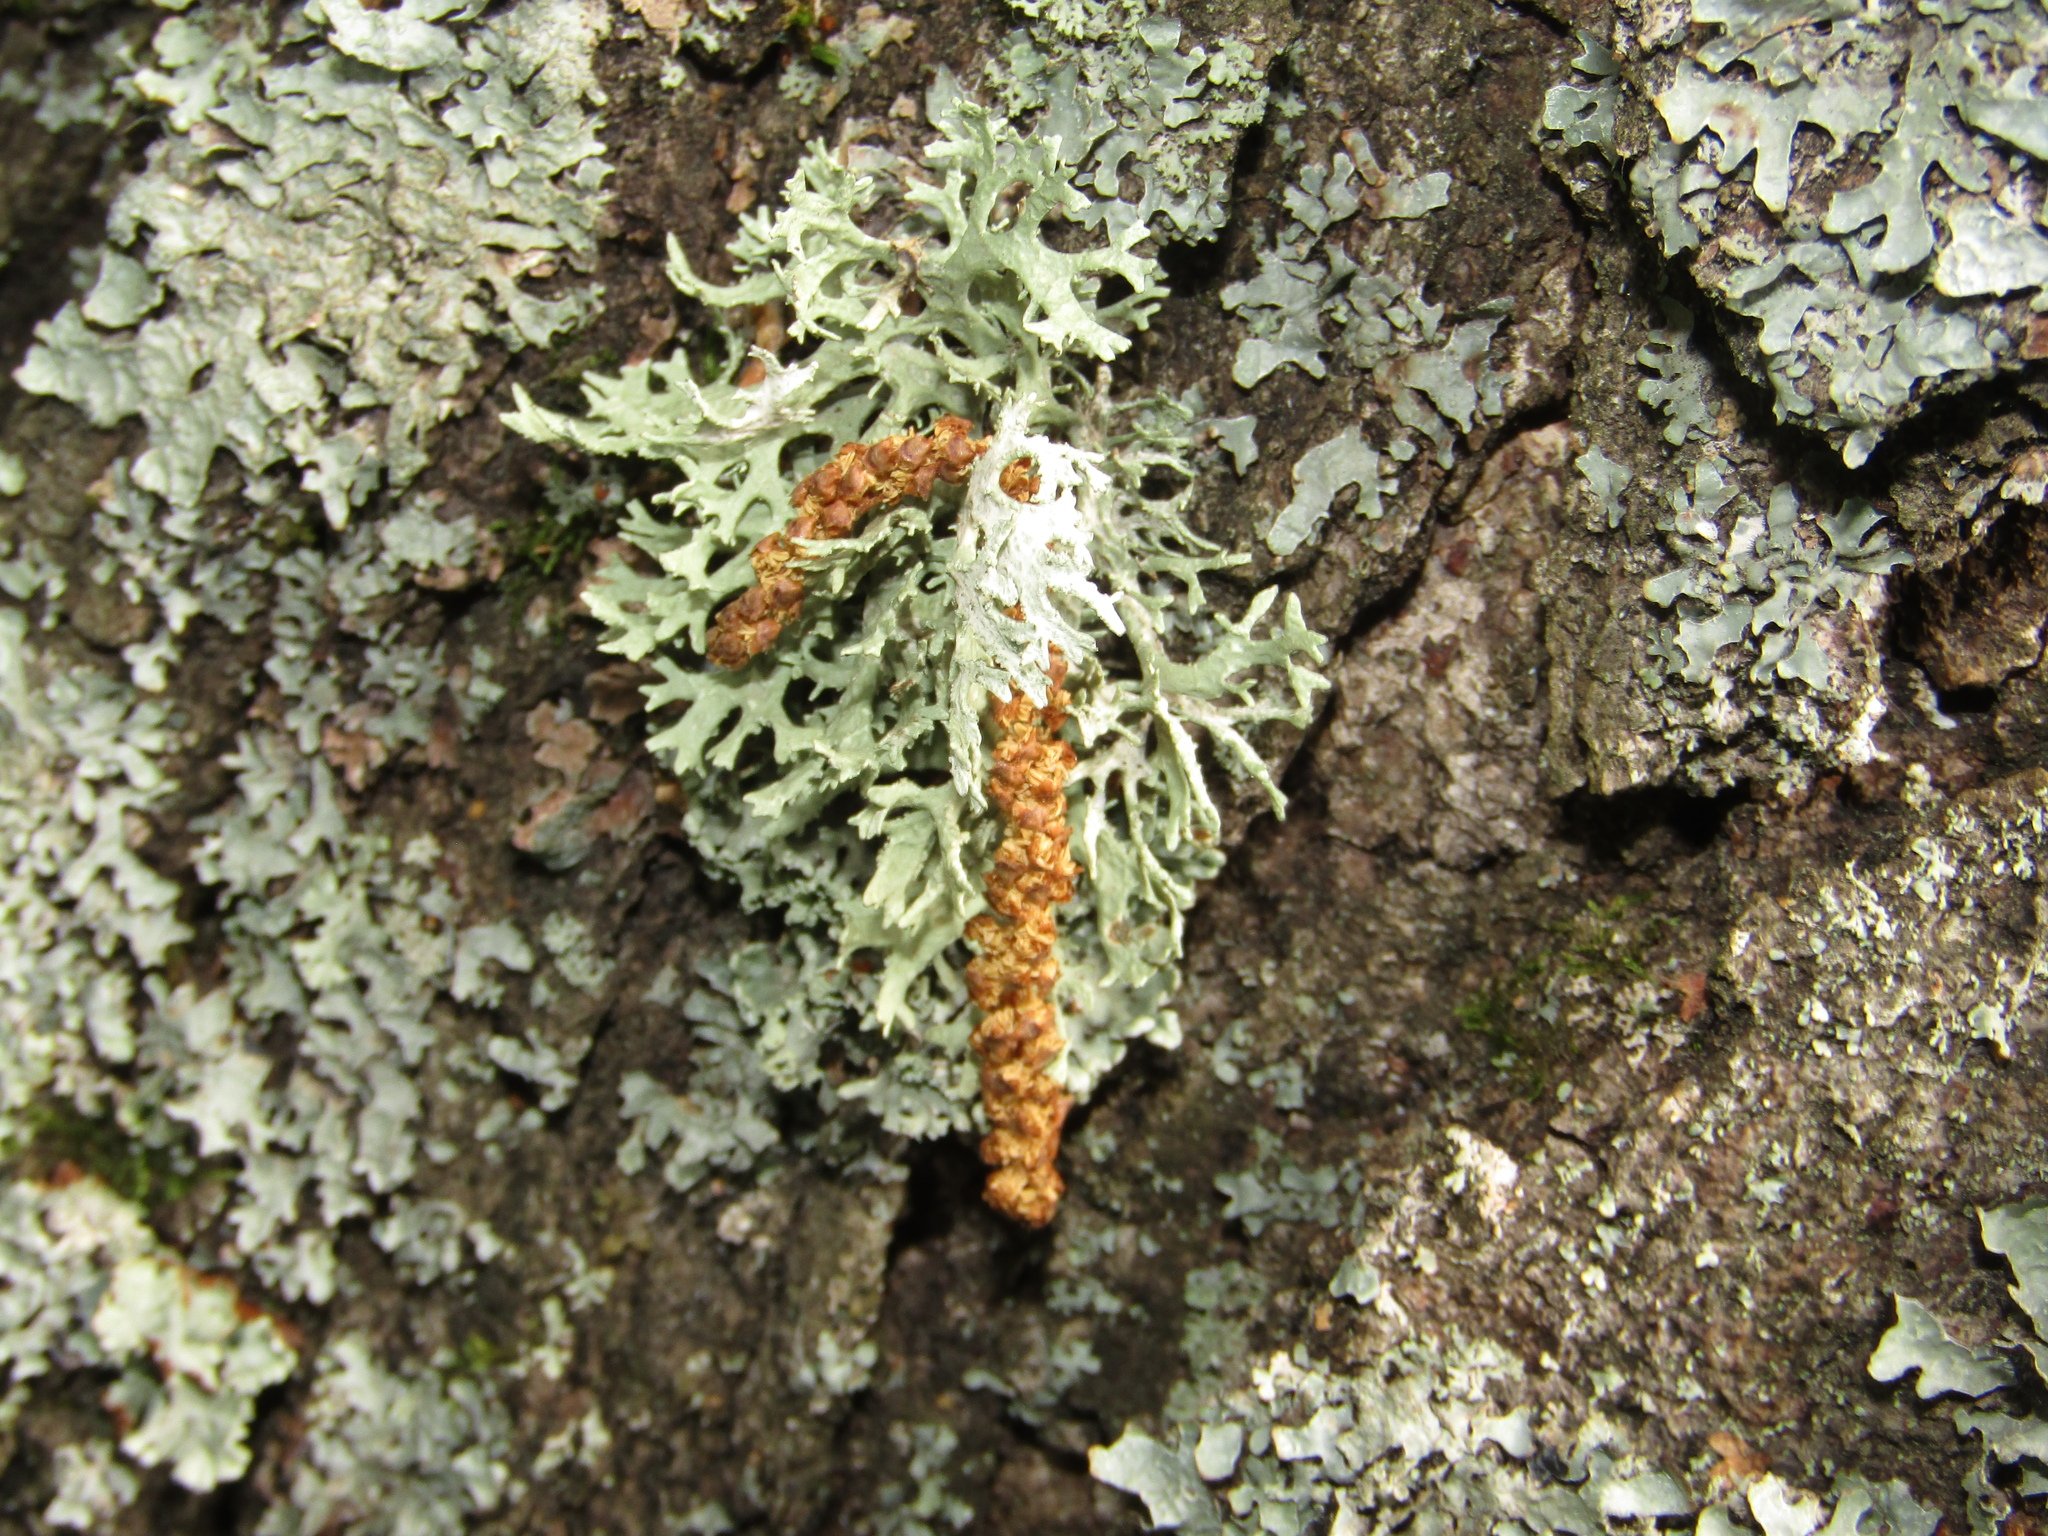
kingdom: Fungi
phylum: Ascomycota
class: Lecanoromycetes
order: Lecanorales
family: Parmeliaceae
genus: Evernia
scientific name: Evernia prunastri
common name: Oak moss
